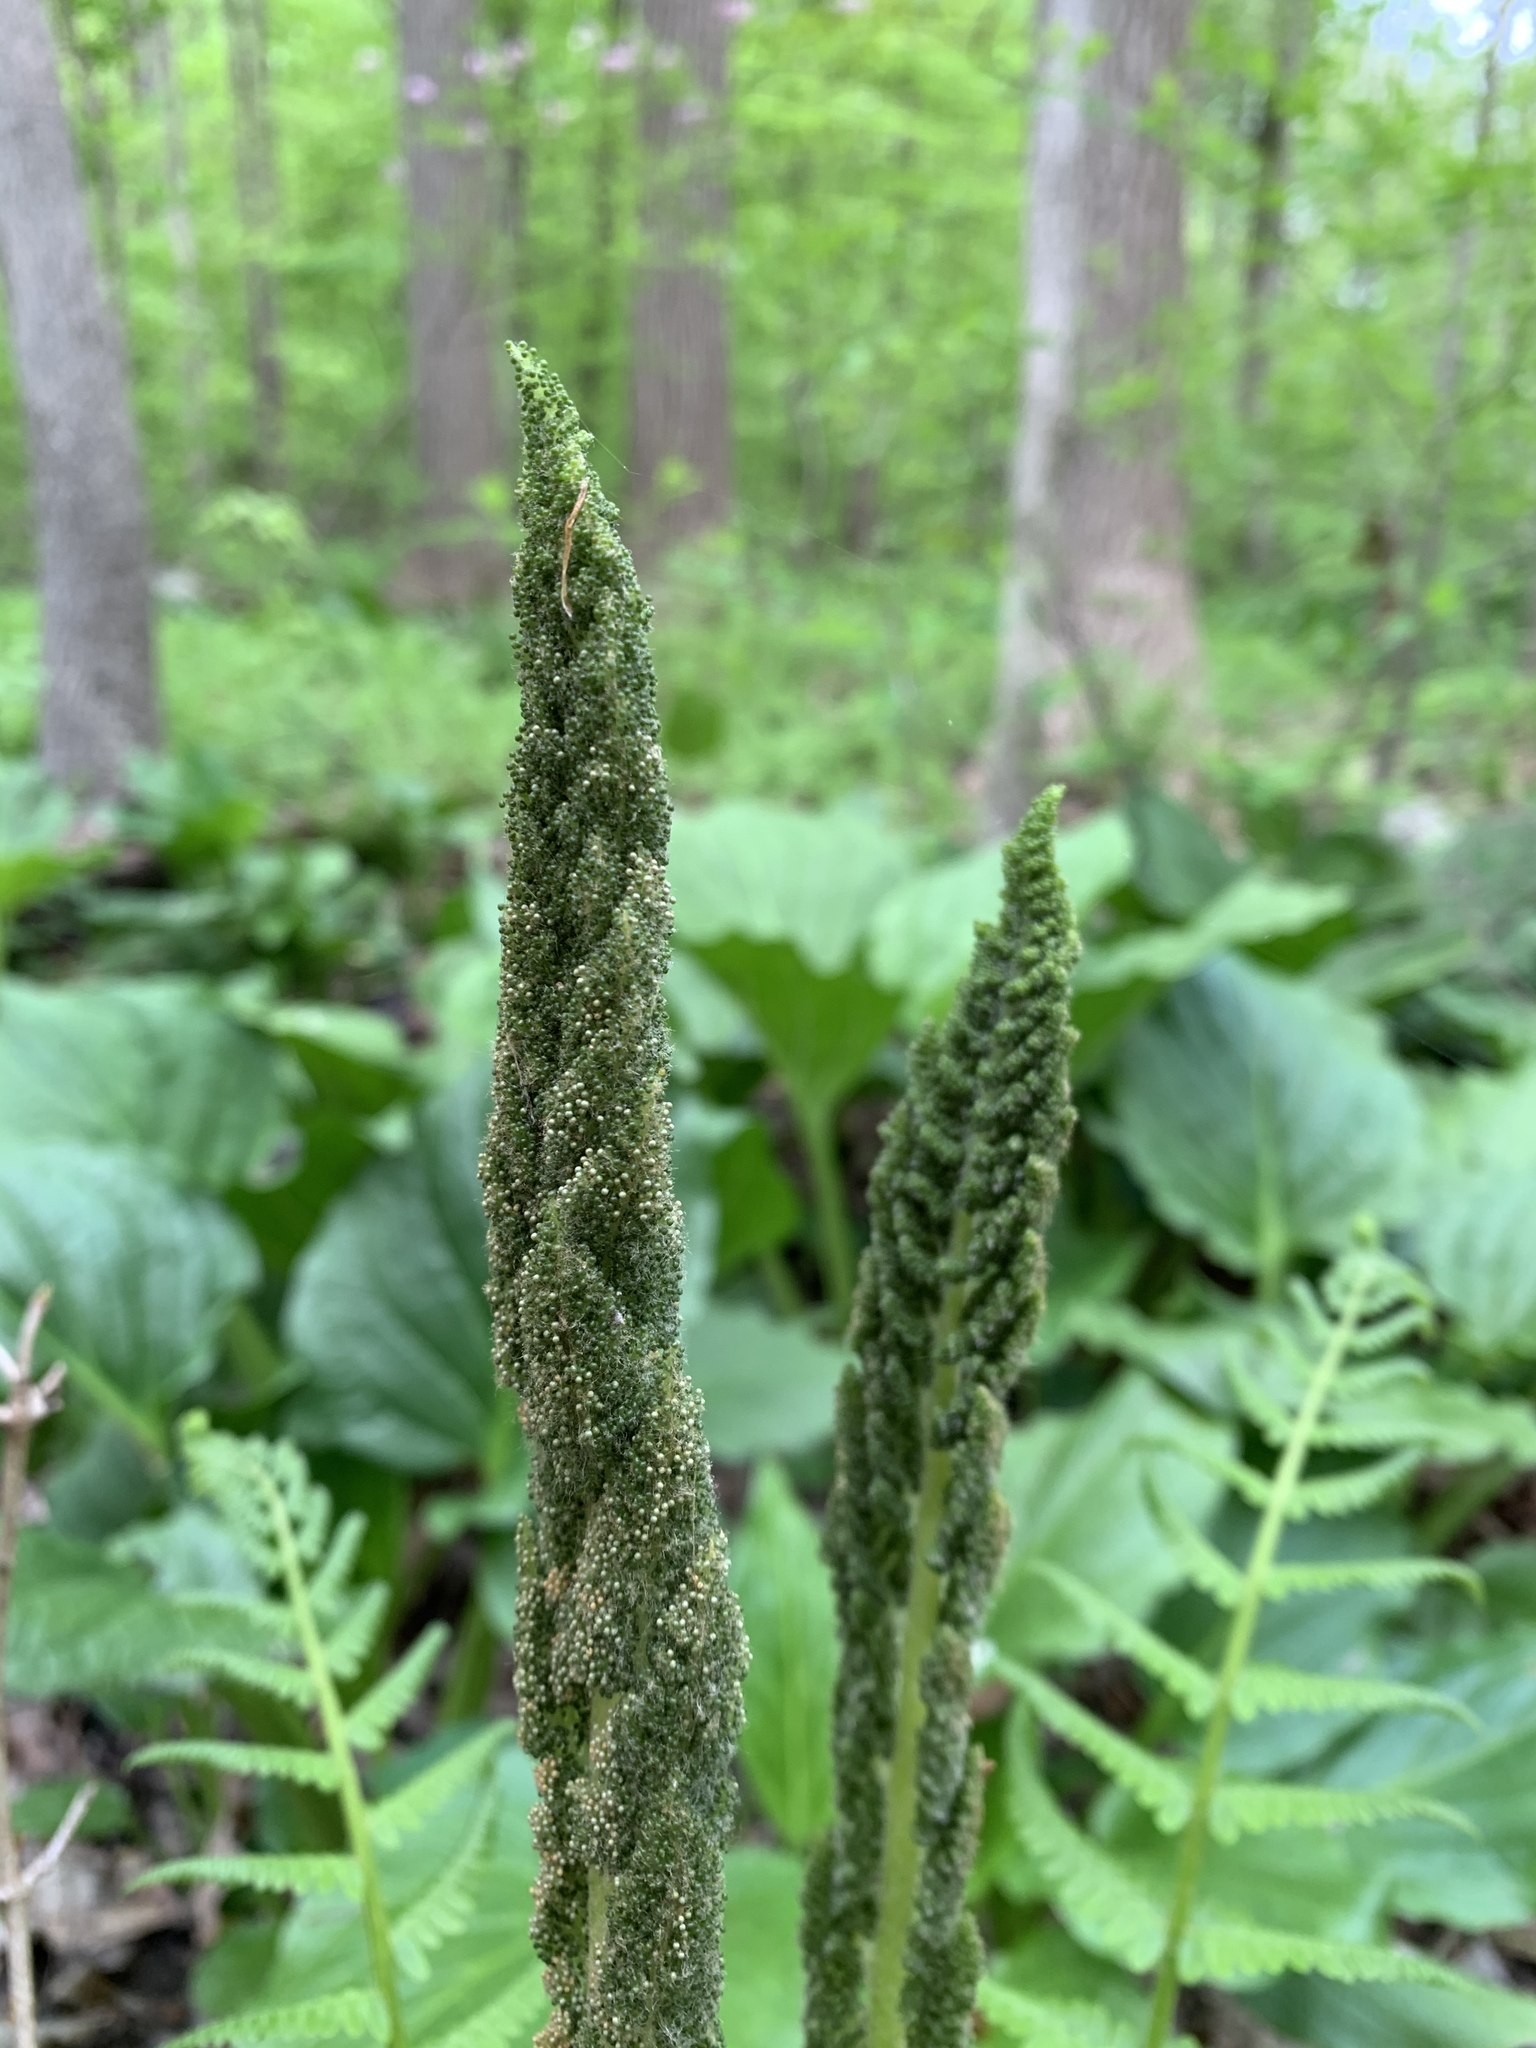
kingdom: Plantae
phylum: Tracheophyta
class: Polypodiopsida
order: Osmundales
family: Osmundaceae
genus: Osmundastrum
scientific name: Osmundastrum cinnamomeum
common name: Cinnamon fern
